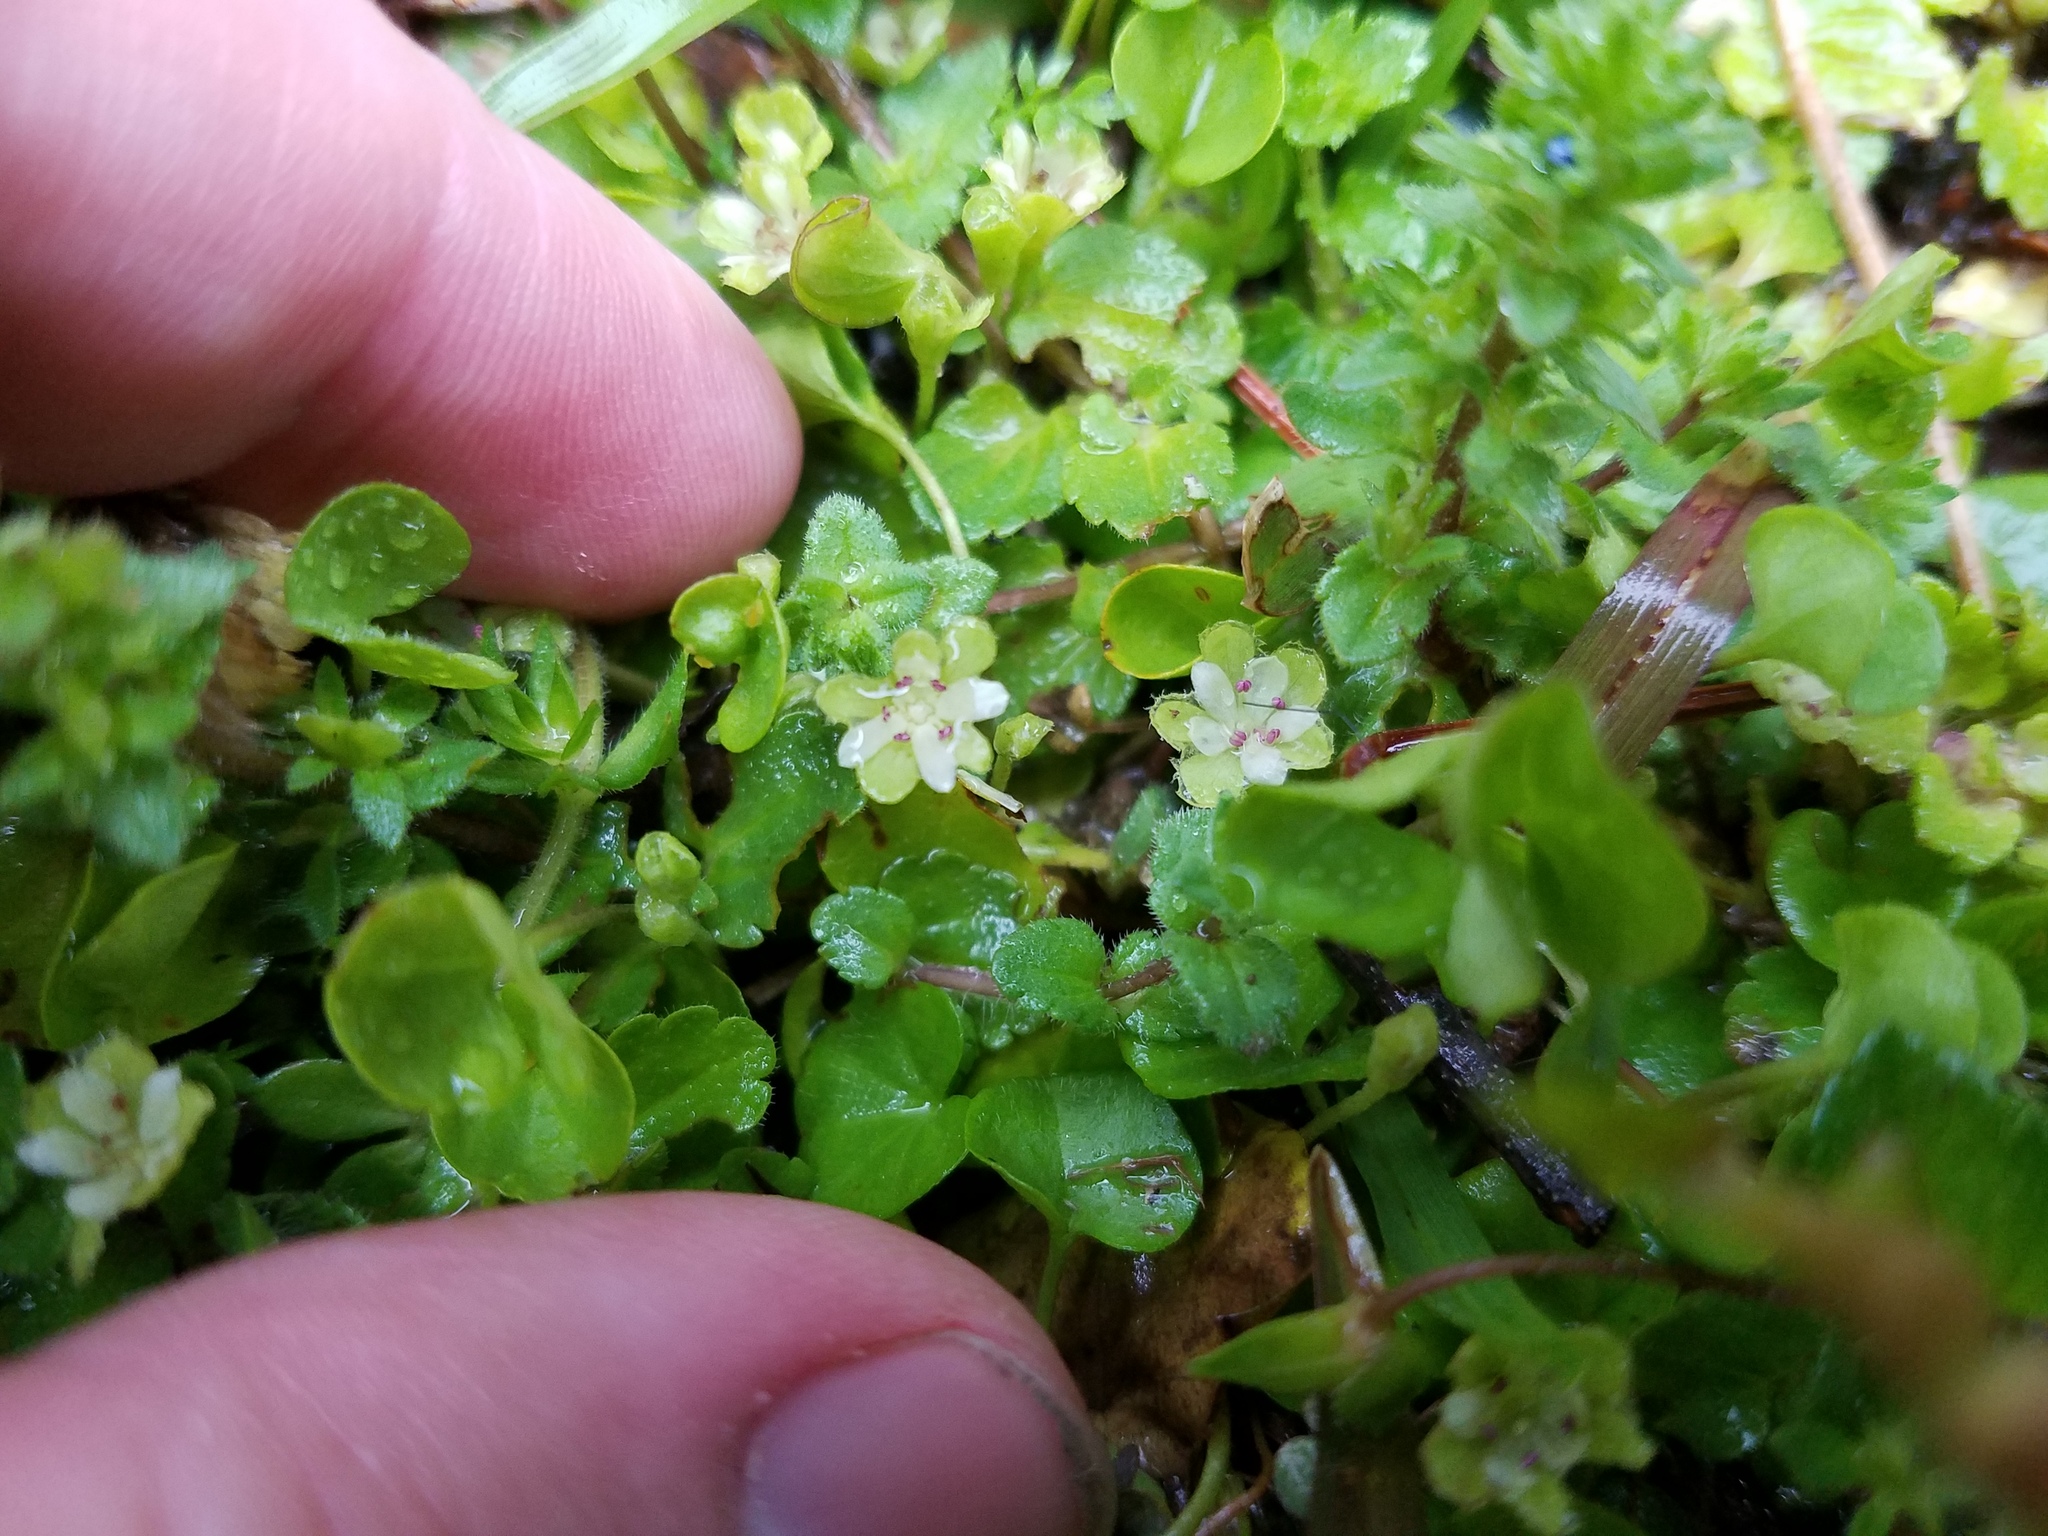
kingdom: Plantae
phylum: Tracheophyta
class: Magnoliopsida
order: Solanales
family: Convolvulaceae
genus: Dichondra
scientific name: Dichondra carolinensis
